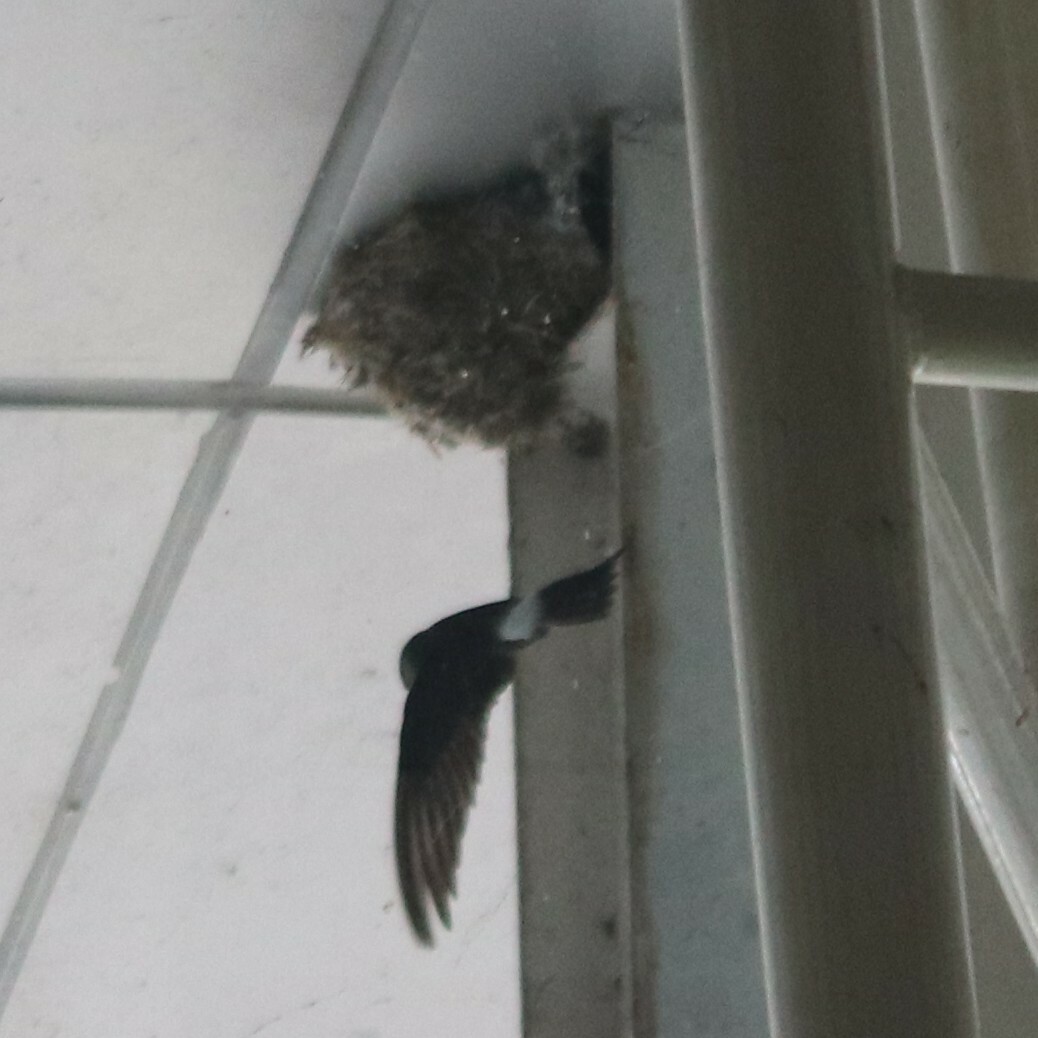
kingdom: Animalia
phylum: Chordata
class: Aves
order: Apodiformes
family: Apodidae
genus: Apus
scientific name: Apus nipalensis
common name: House swift
